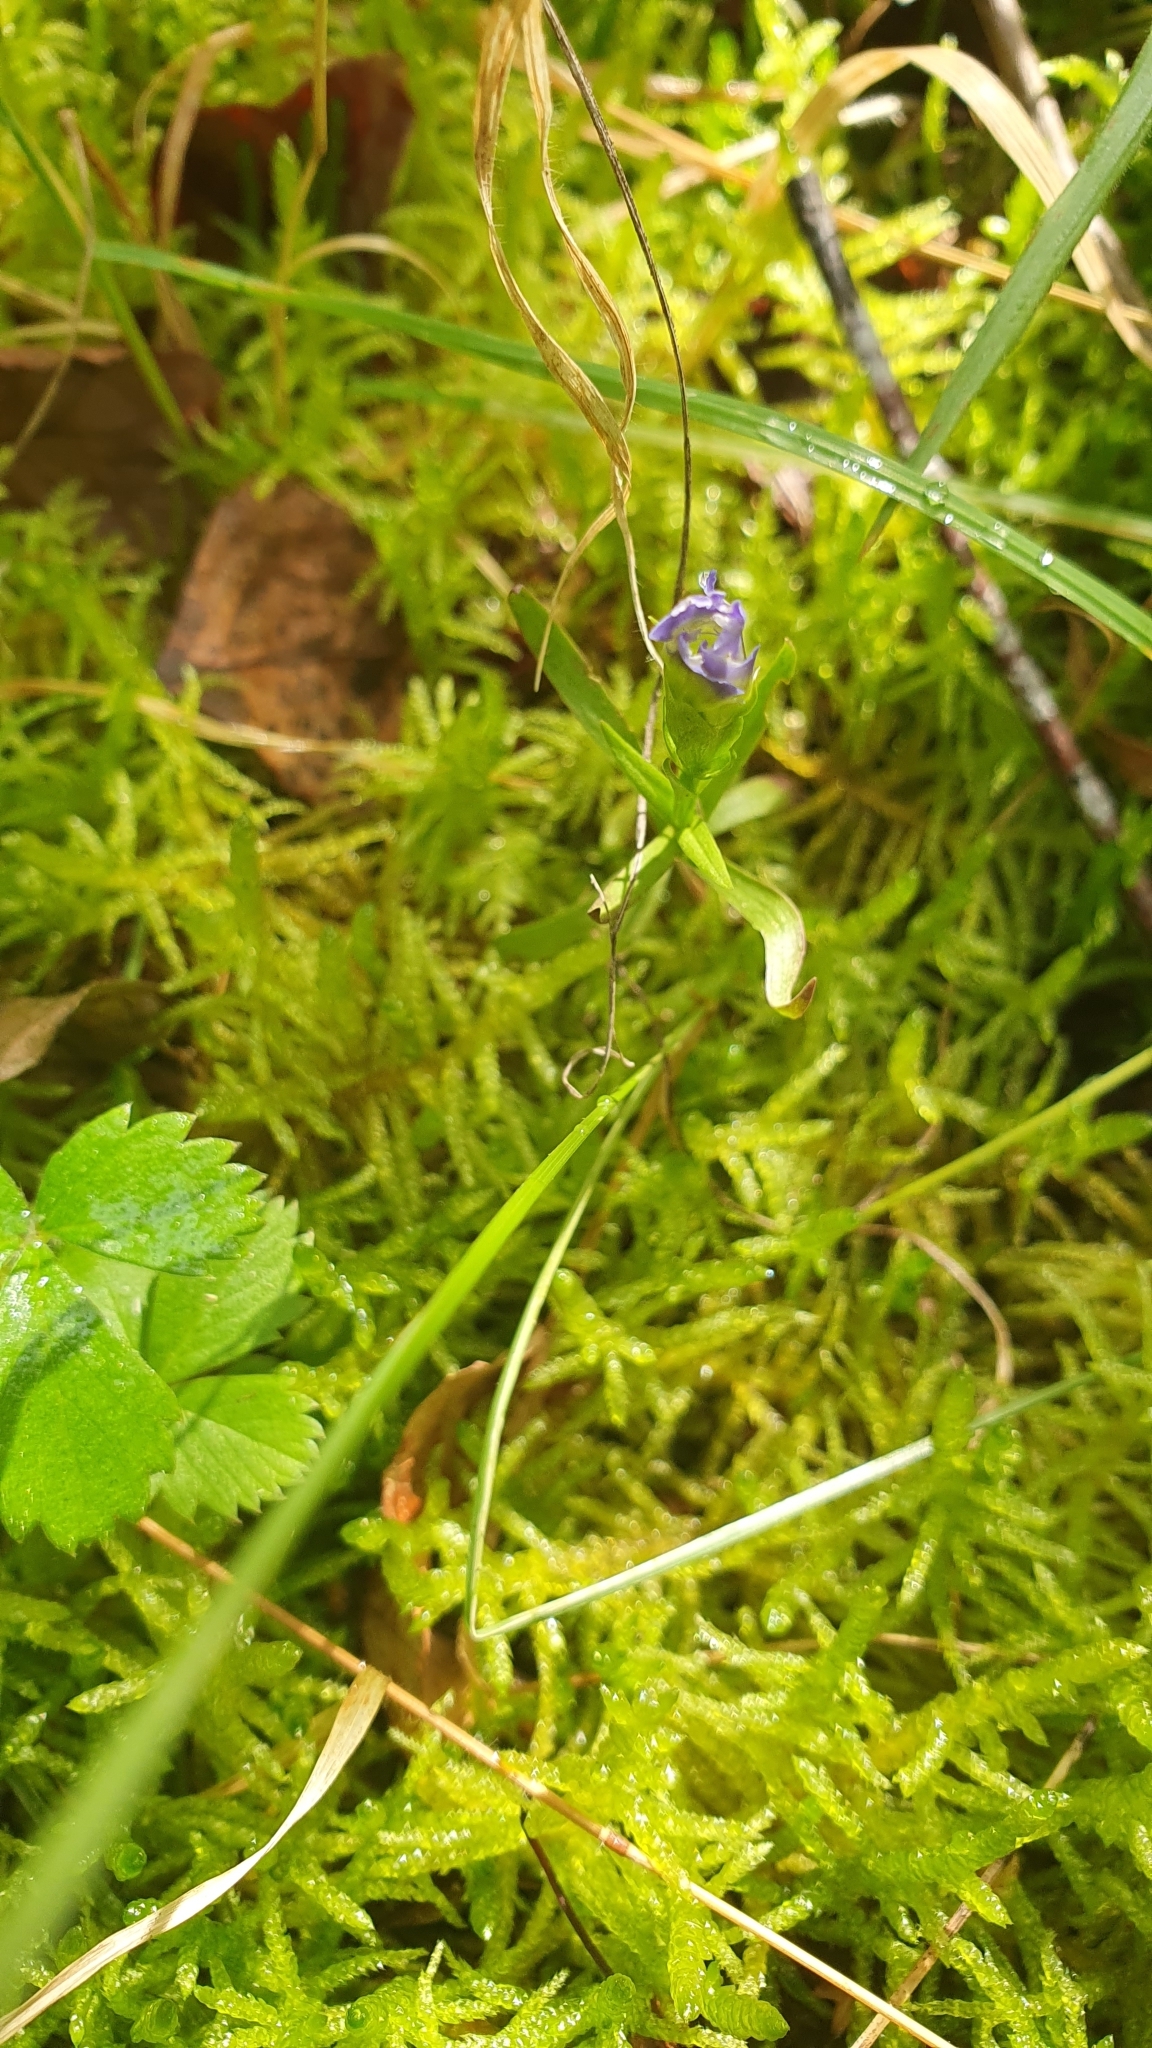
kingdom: Plantae
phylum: Tracheophyta
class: Magnoliopsida
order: Gentianales
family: Gentianaceae
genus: Gentianopsis
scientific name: Gentianopsis ciliata
